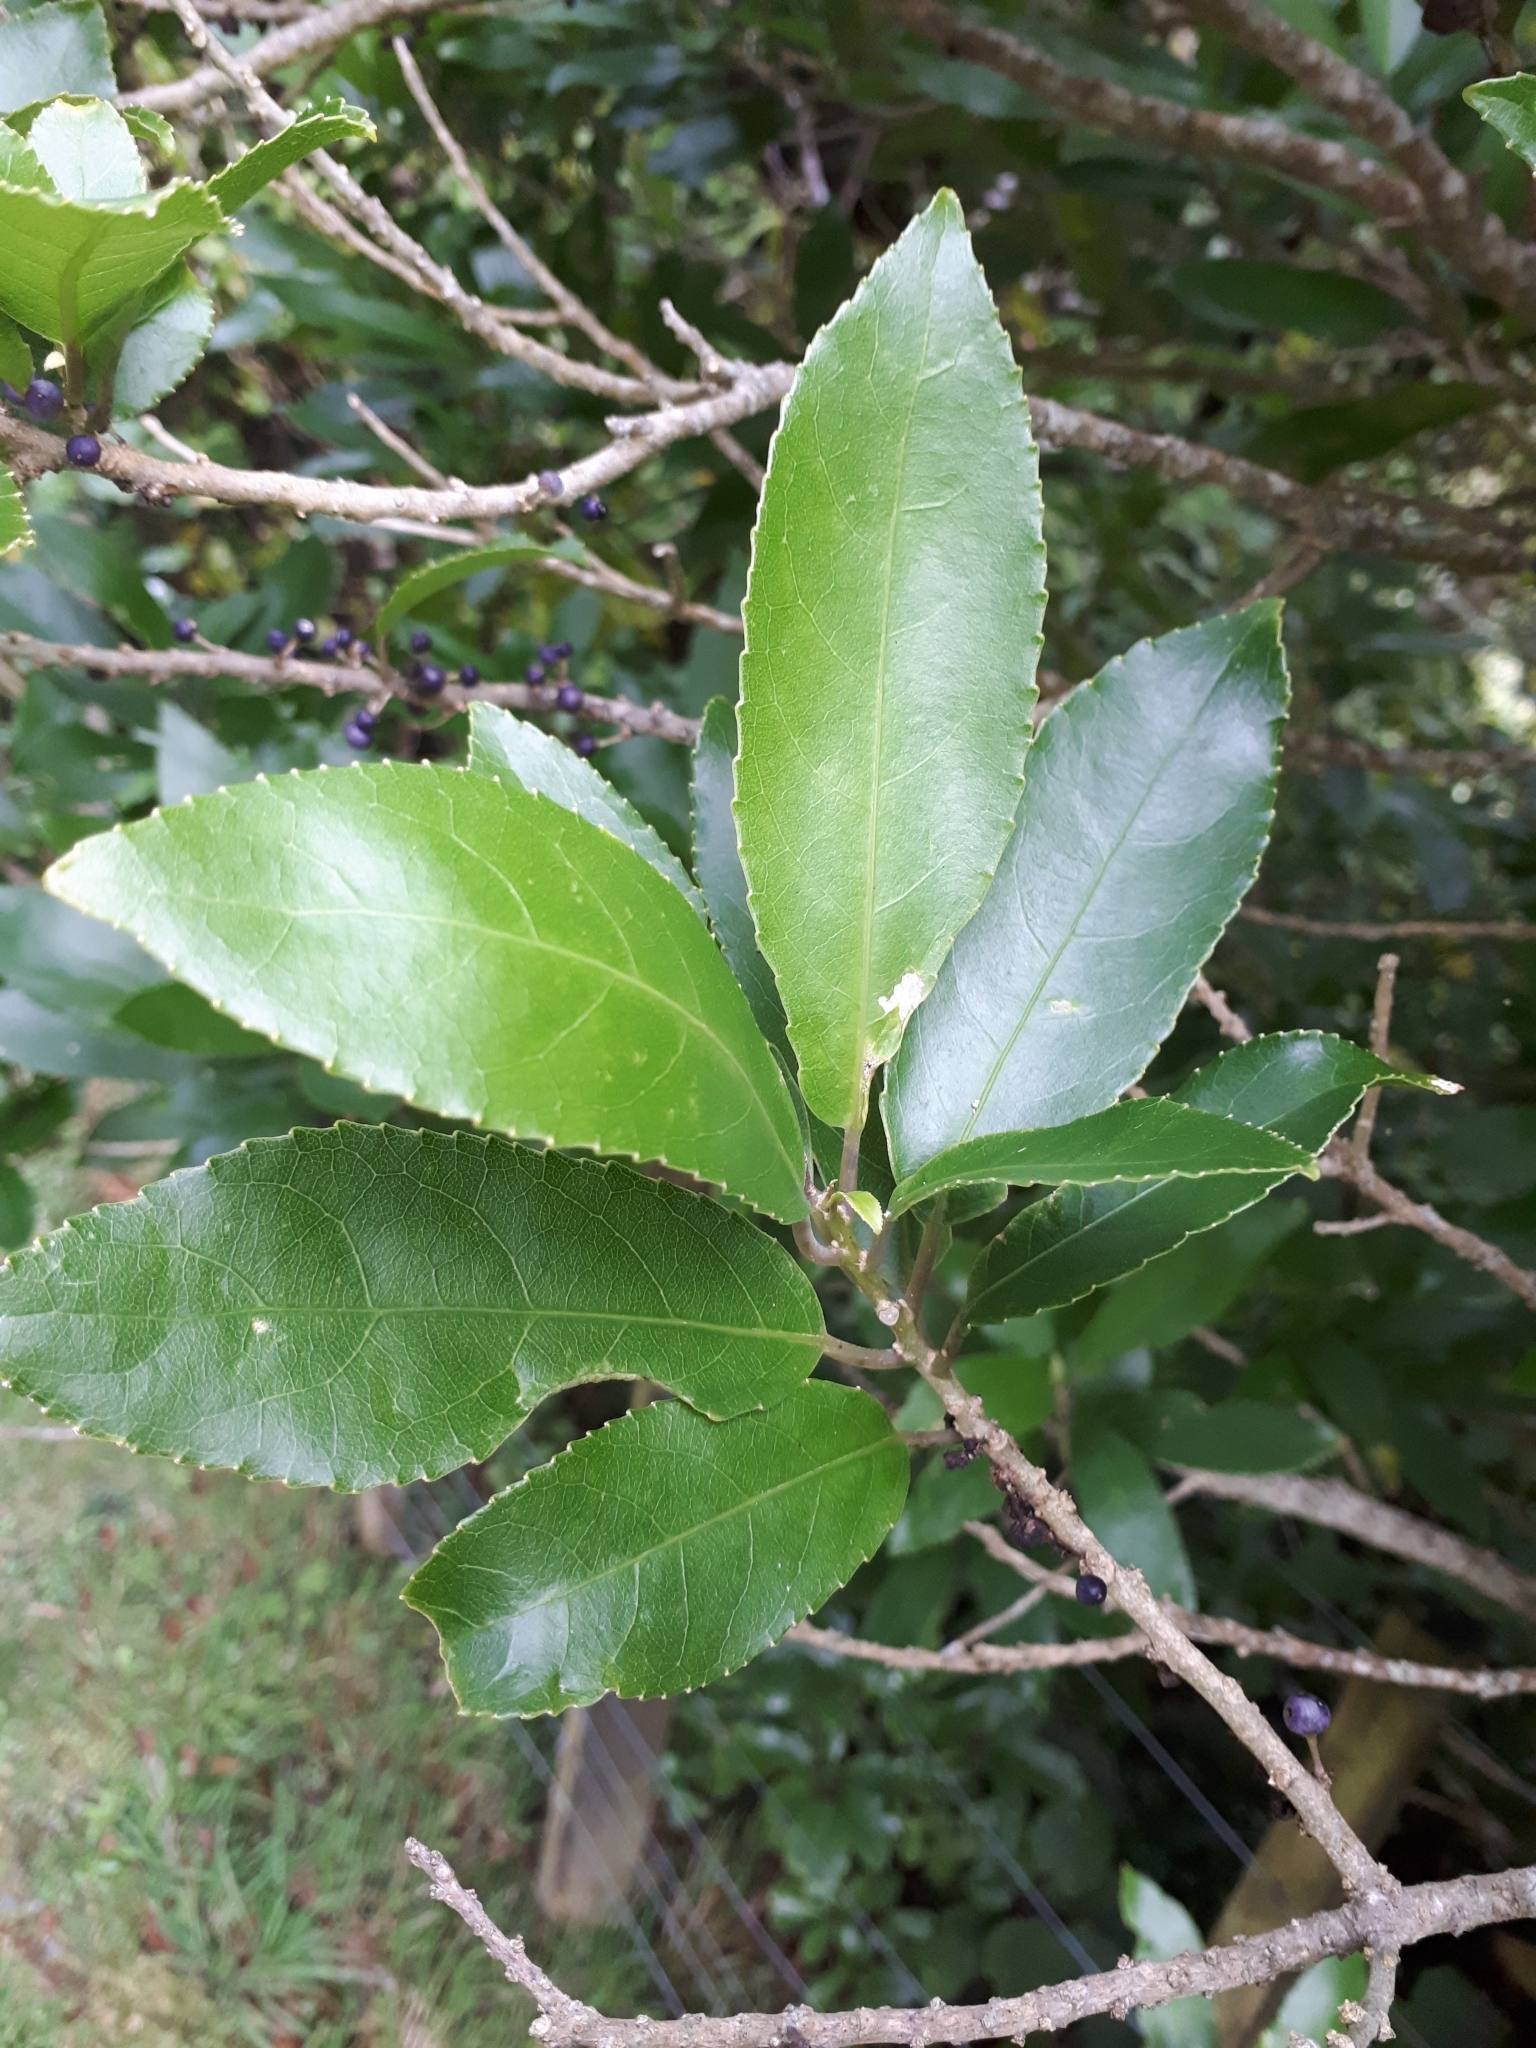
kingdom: Plantae
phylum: Tracheophyta
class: Magnoliopsida
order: Malpighiales
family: Violaceae
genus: Melicytus
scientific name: Melicytus ramiflorus
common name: Mahoe
